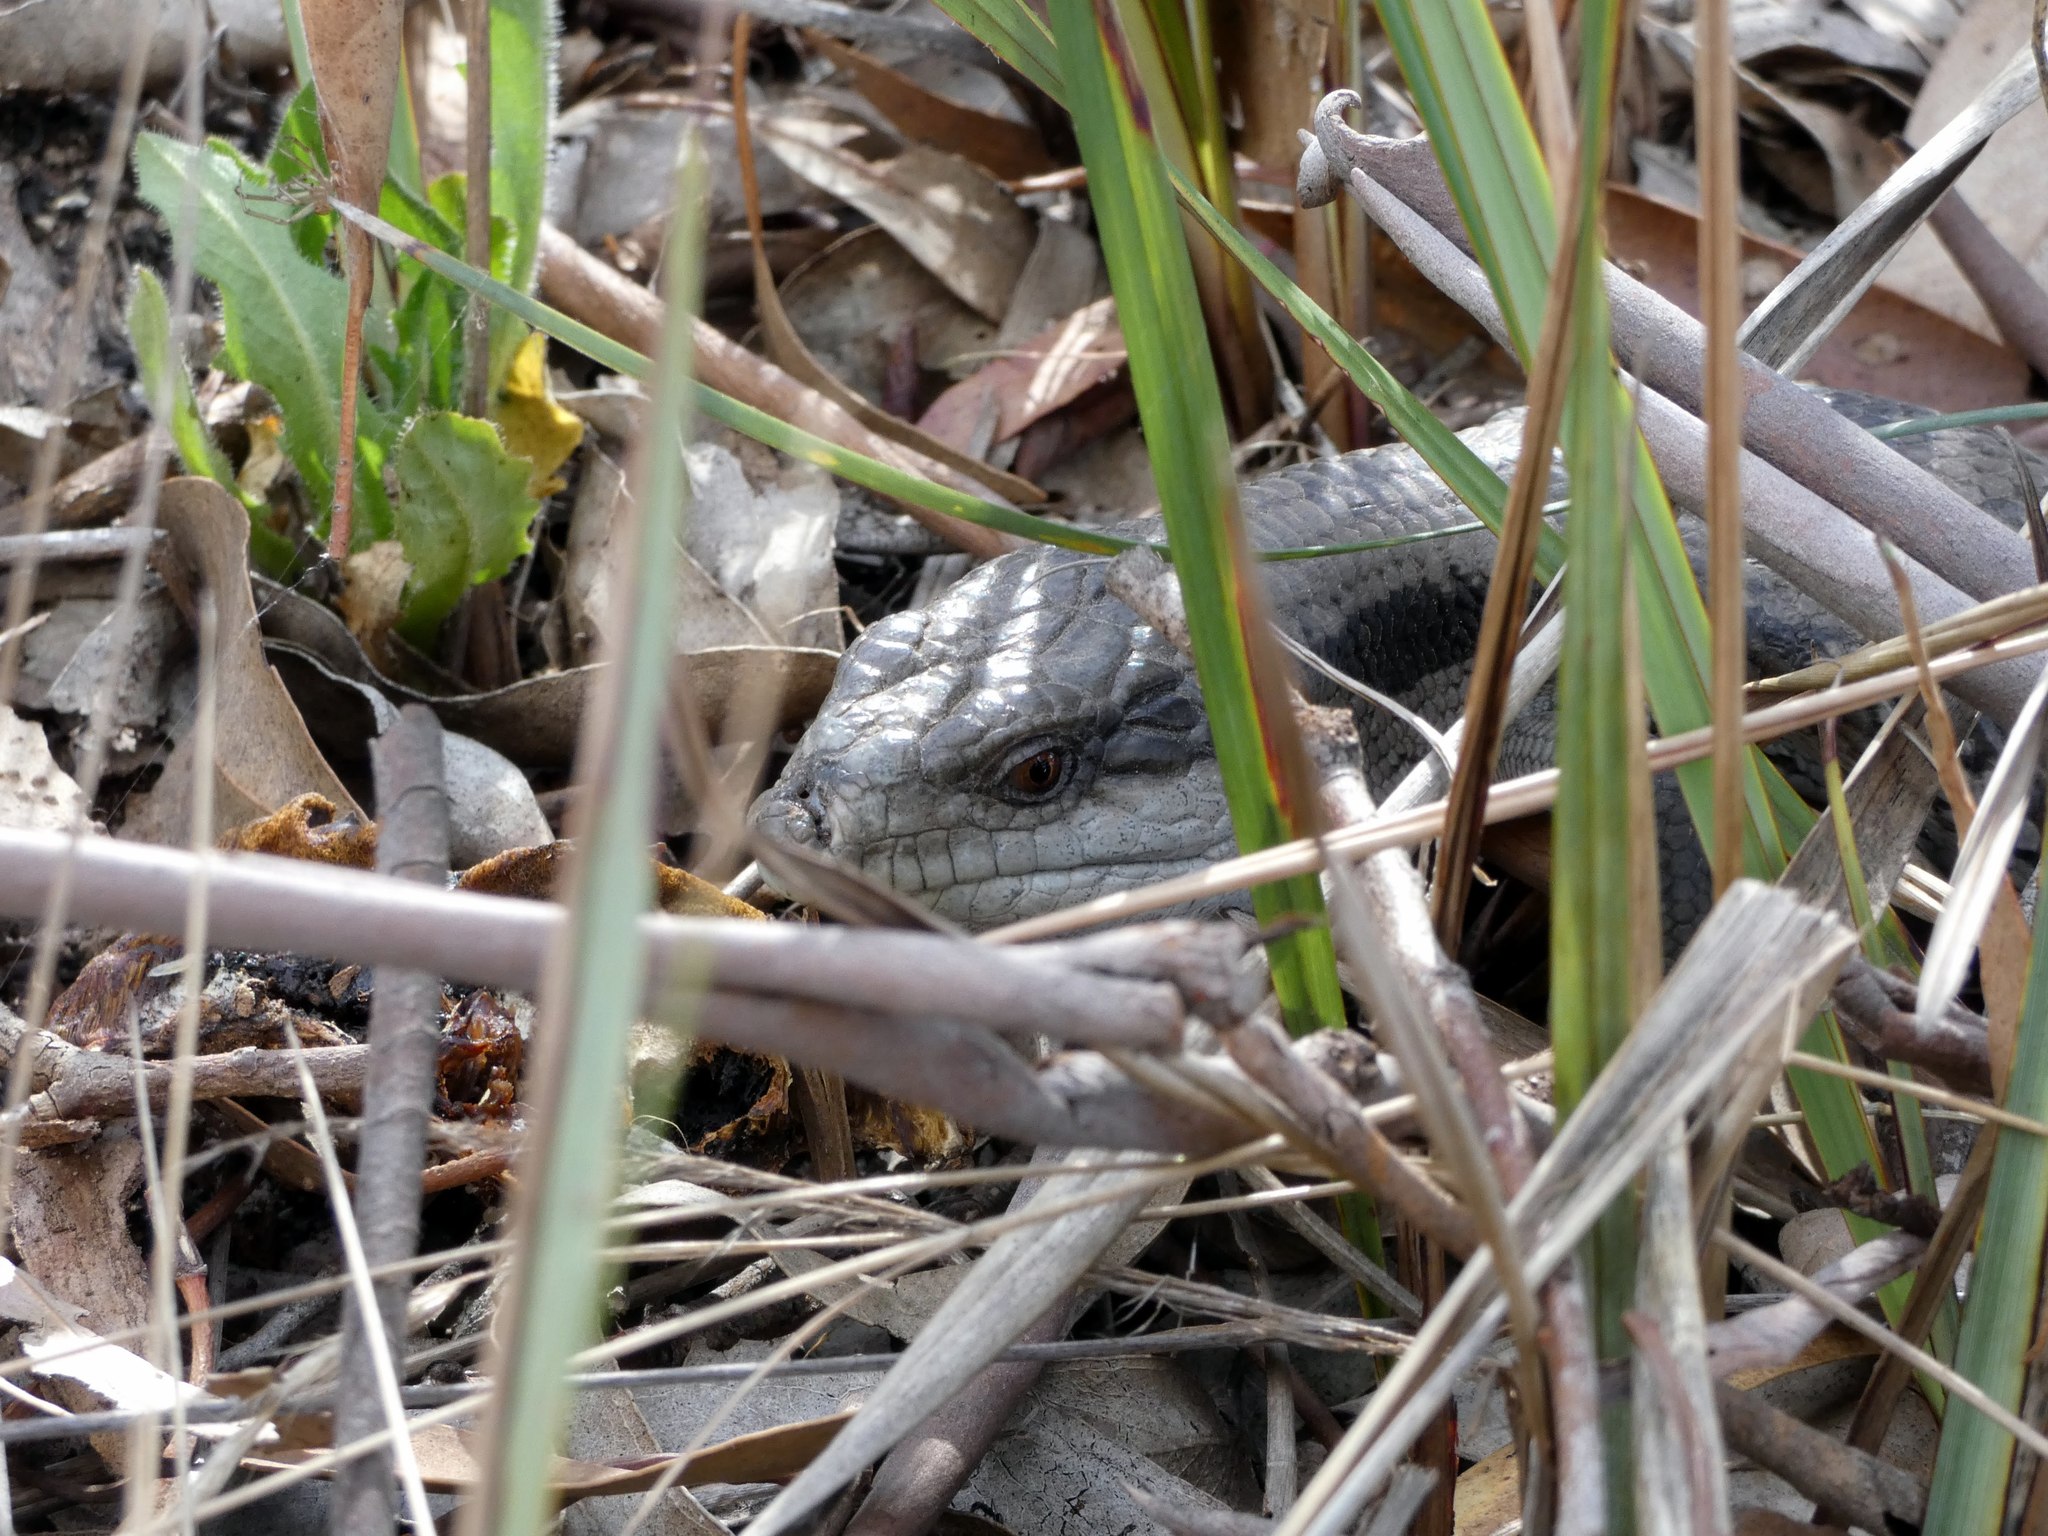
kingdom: Animalia
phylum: Chordata
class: Squamata
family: Scincidae
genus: Tiliqua
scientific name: Tiliqua scincoides
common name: Common bluetongue
